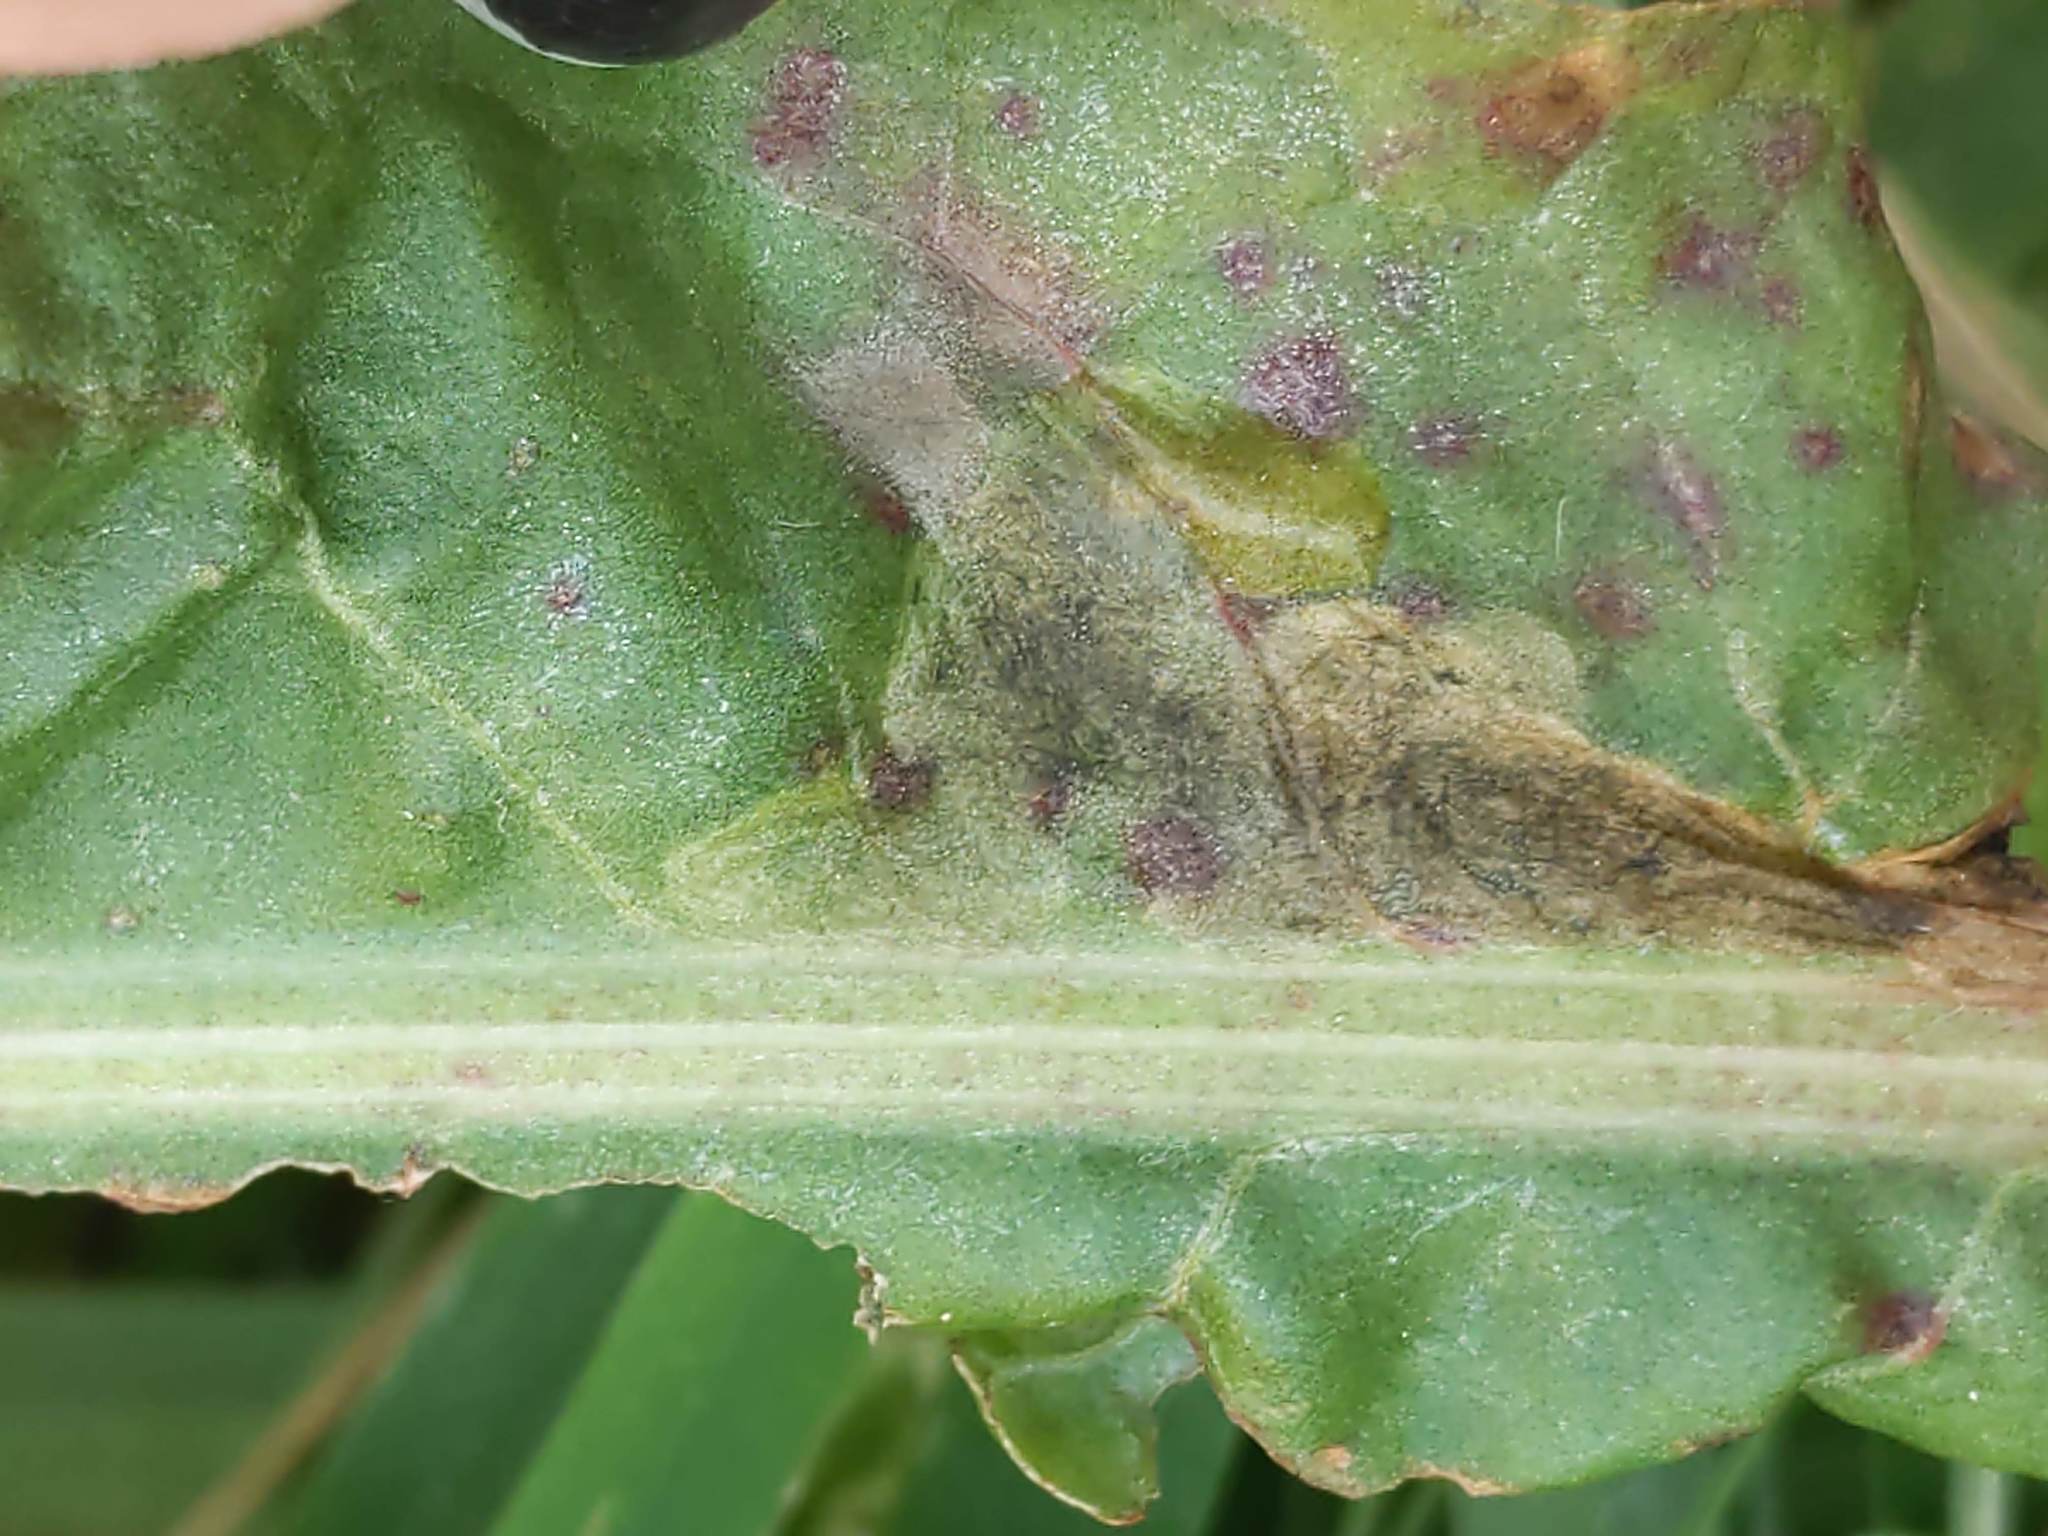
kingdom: Animalia
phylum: Arthropoda
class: Insecta
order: Diptera
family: Anthomyiidae
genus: Pegomya
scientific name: Pegomya bicolor
